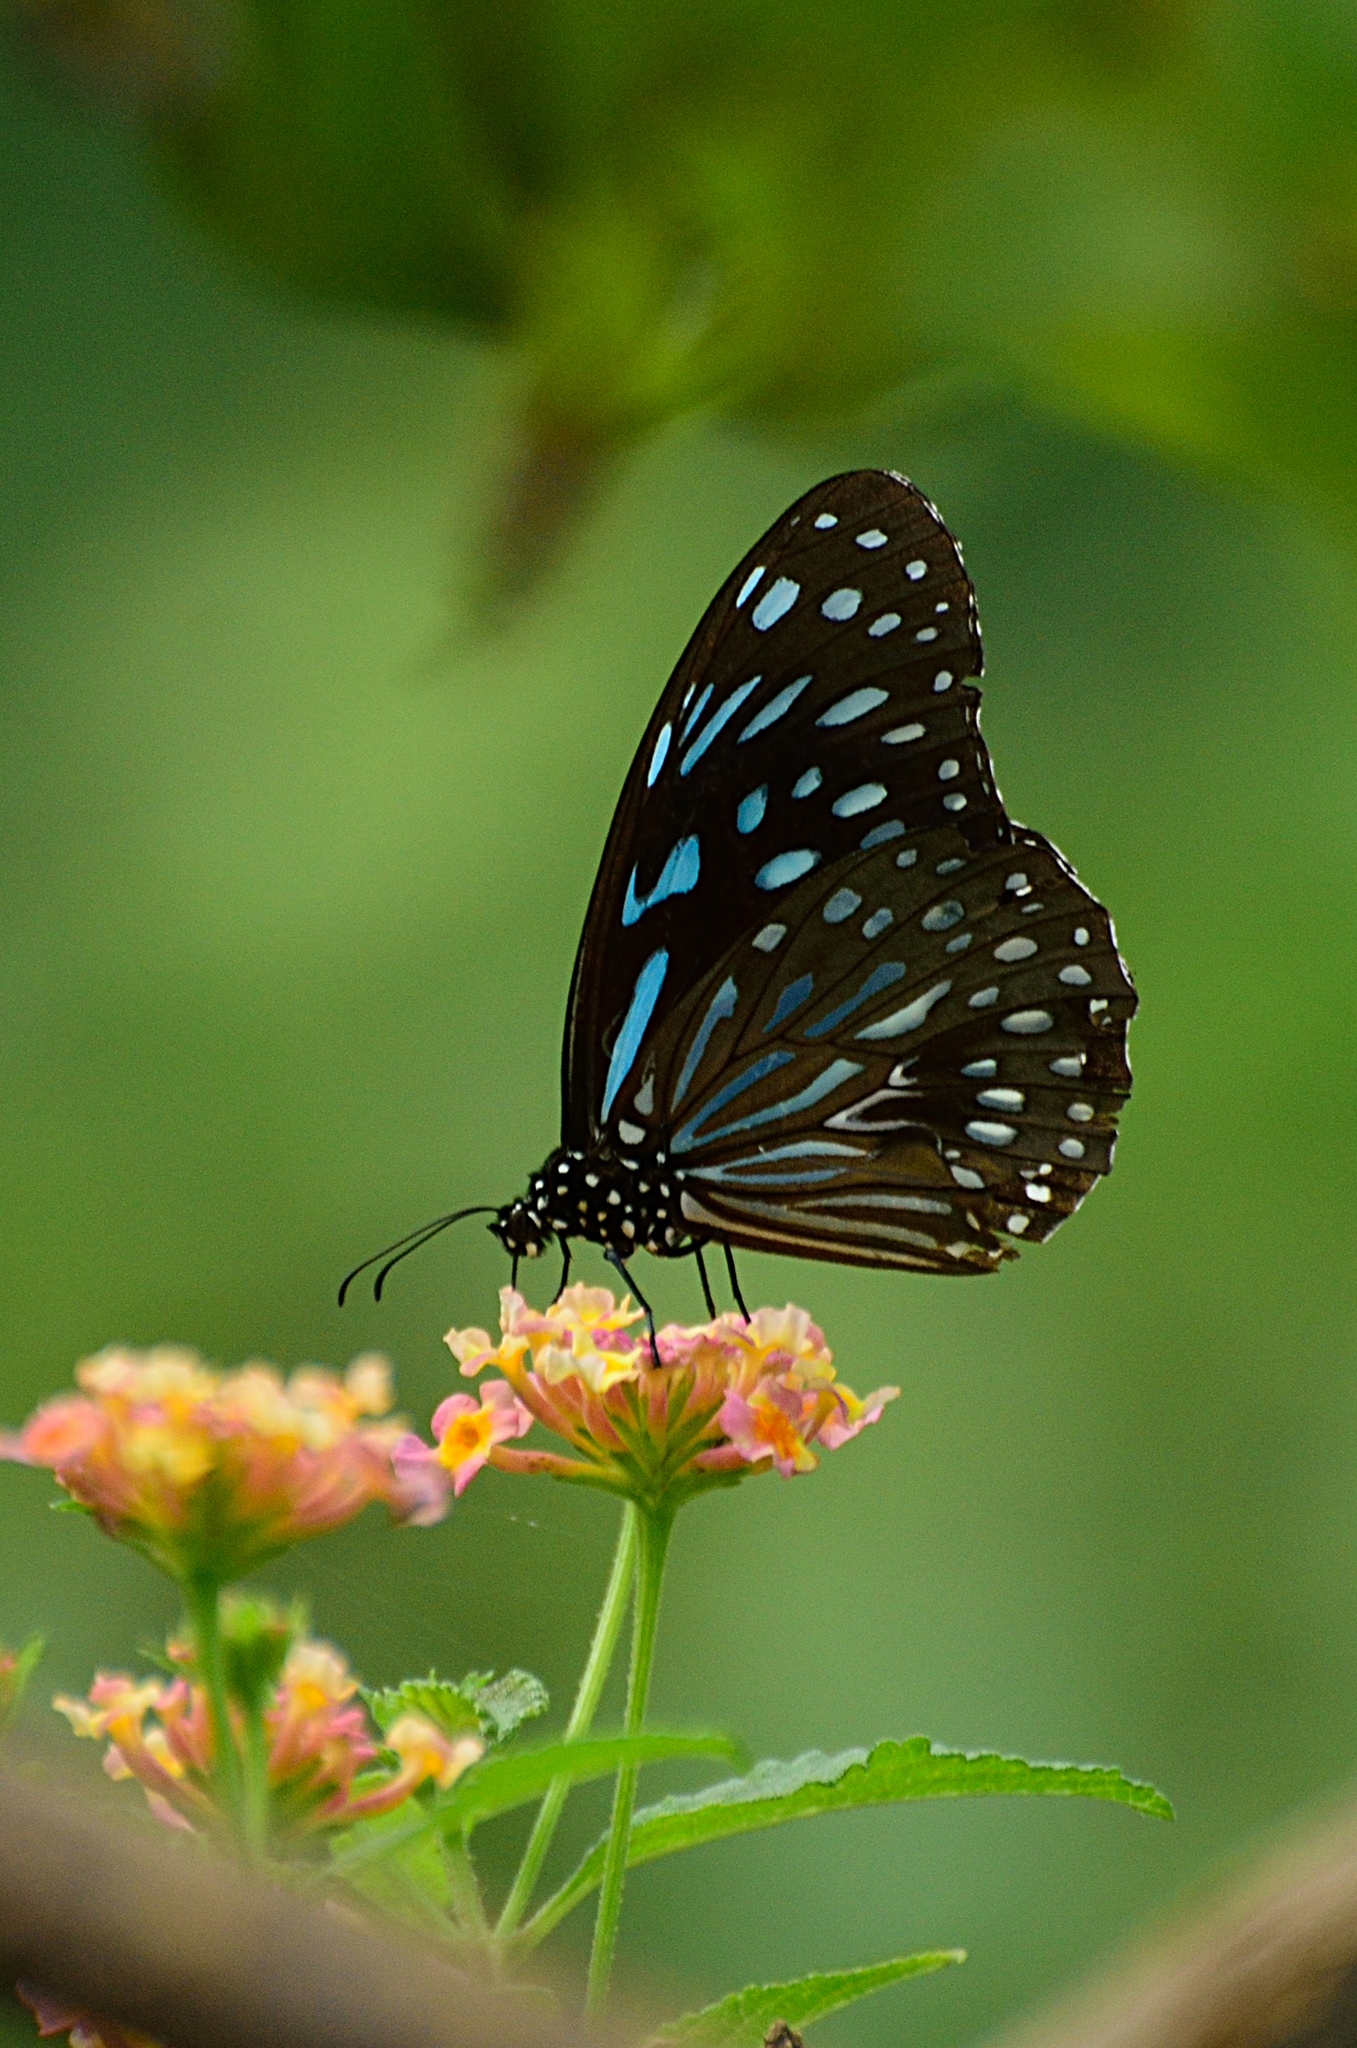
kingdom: Animalia
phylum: Arthropoda
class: Insecta
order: Lepidoptera
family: Nymphalidae
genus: Tirumala
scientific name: Tirumala septentrionis
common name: Dark blue tiger butterfly
